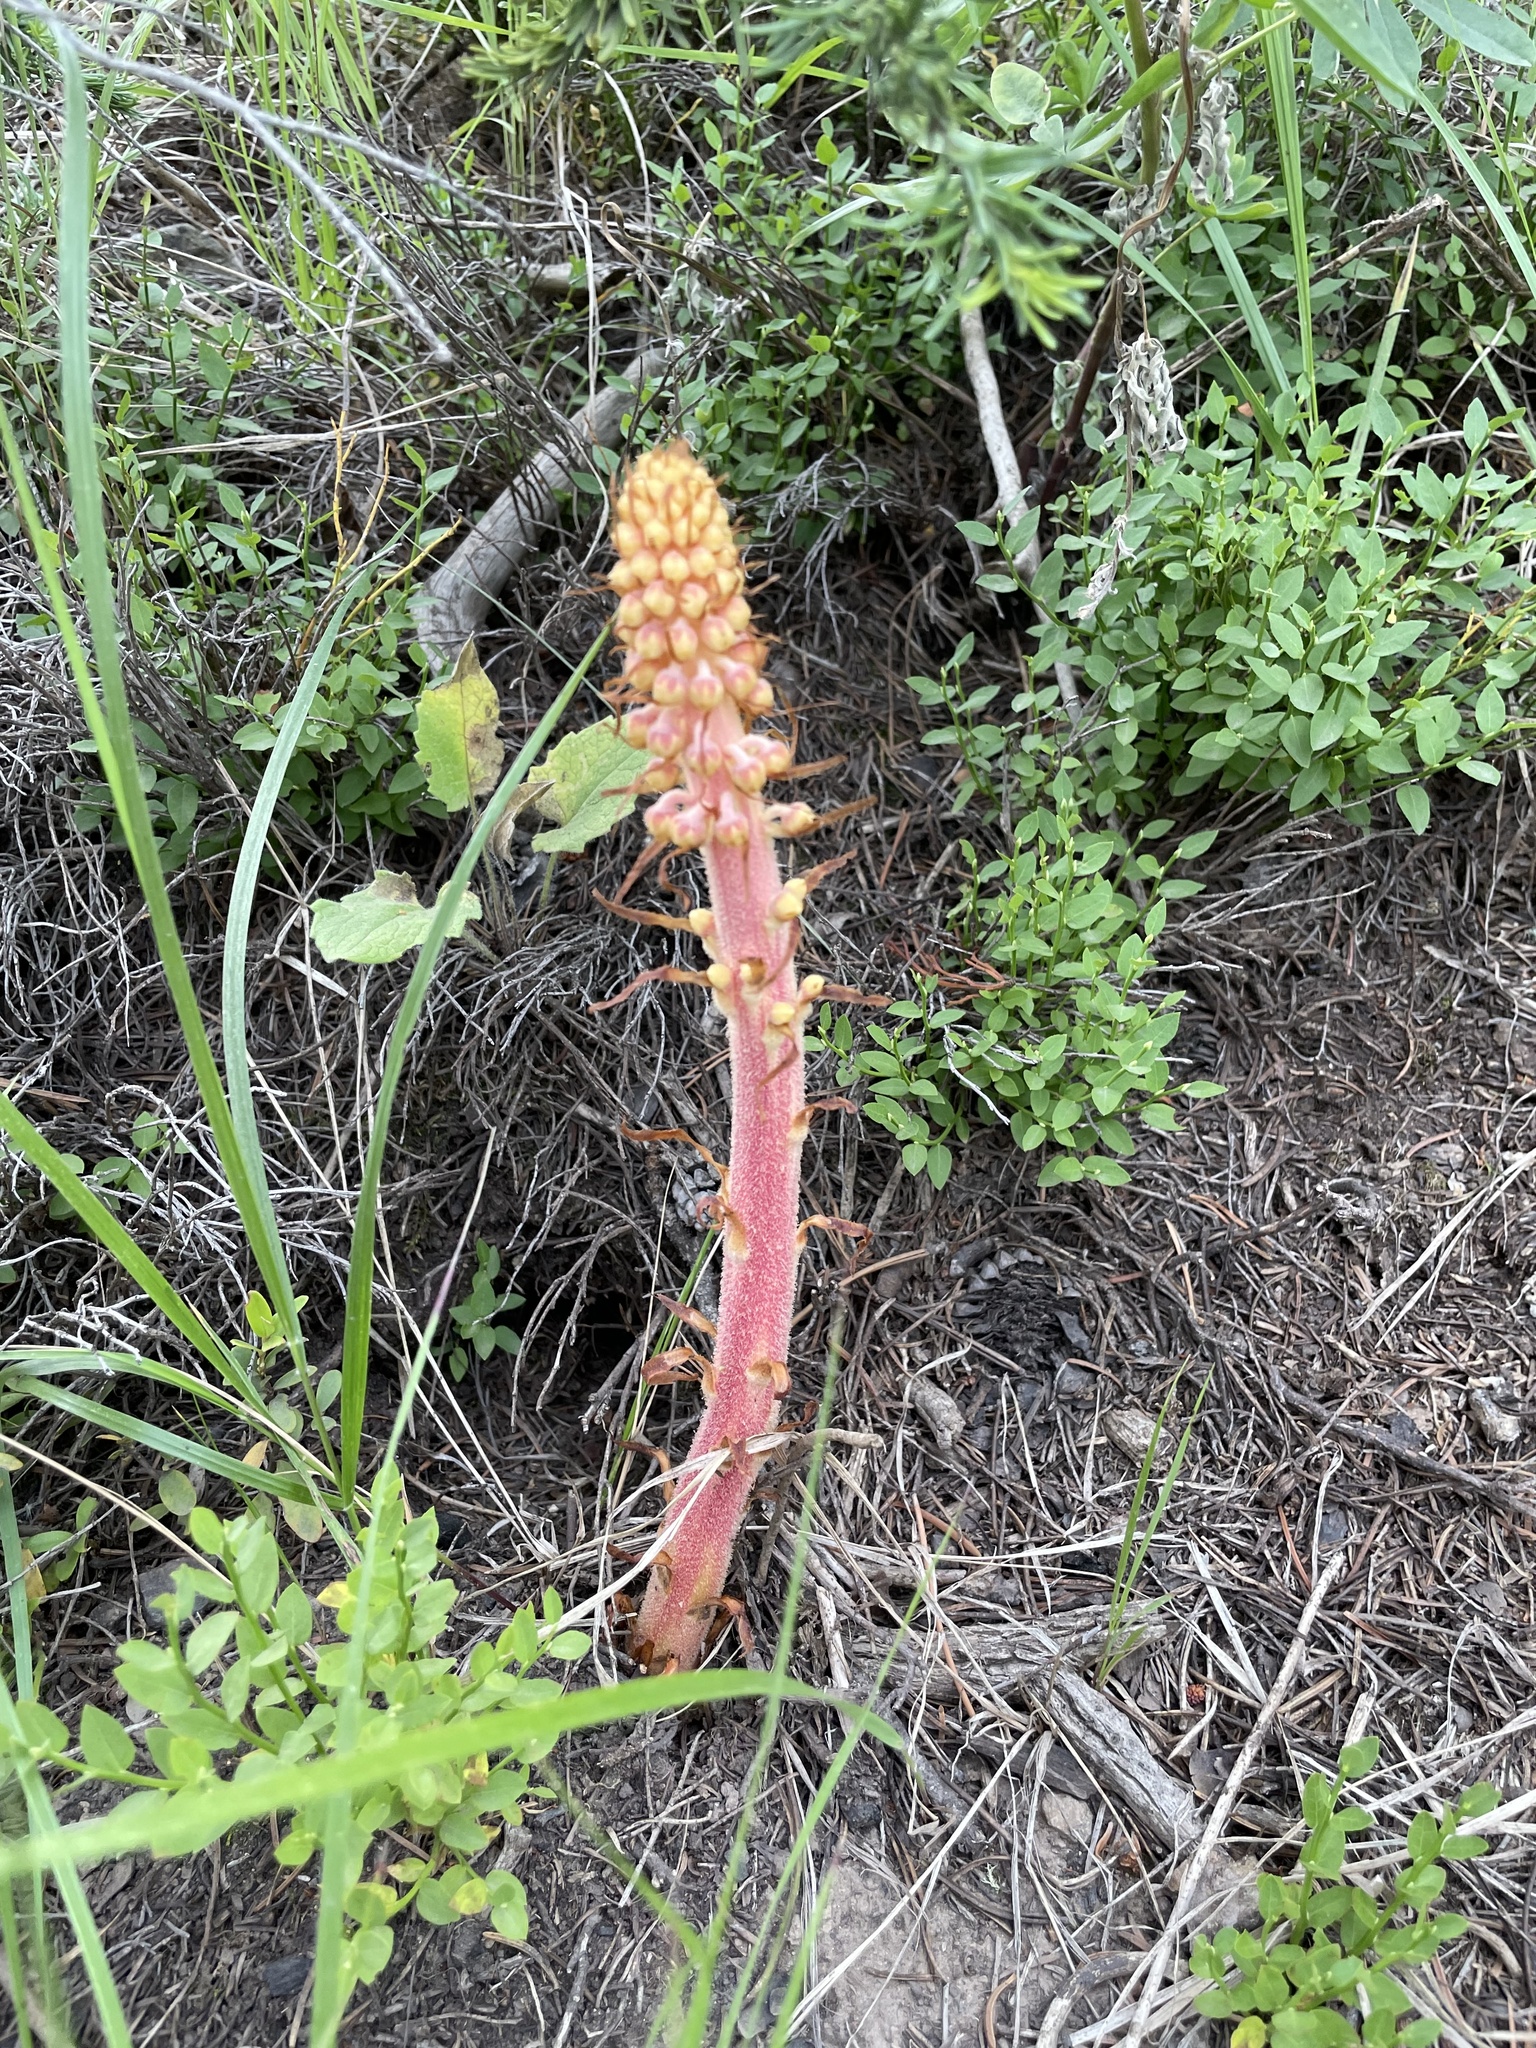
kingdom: Plantae
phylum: Tracheophyta
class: Magnoliopsida
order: Ericales
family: Ericaceae
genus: Pterospora
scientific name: Pterospora andromedea
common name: Giant bird's-nest
